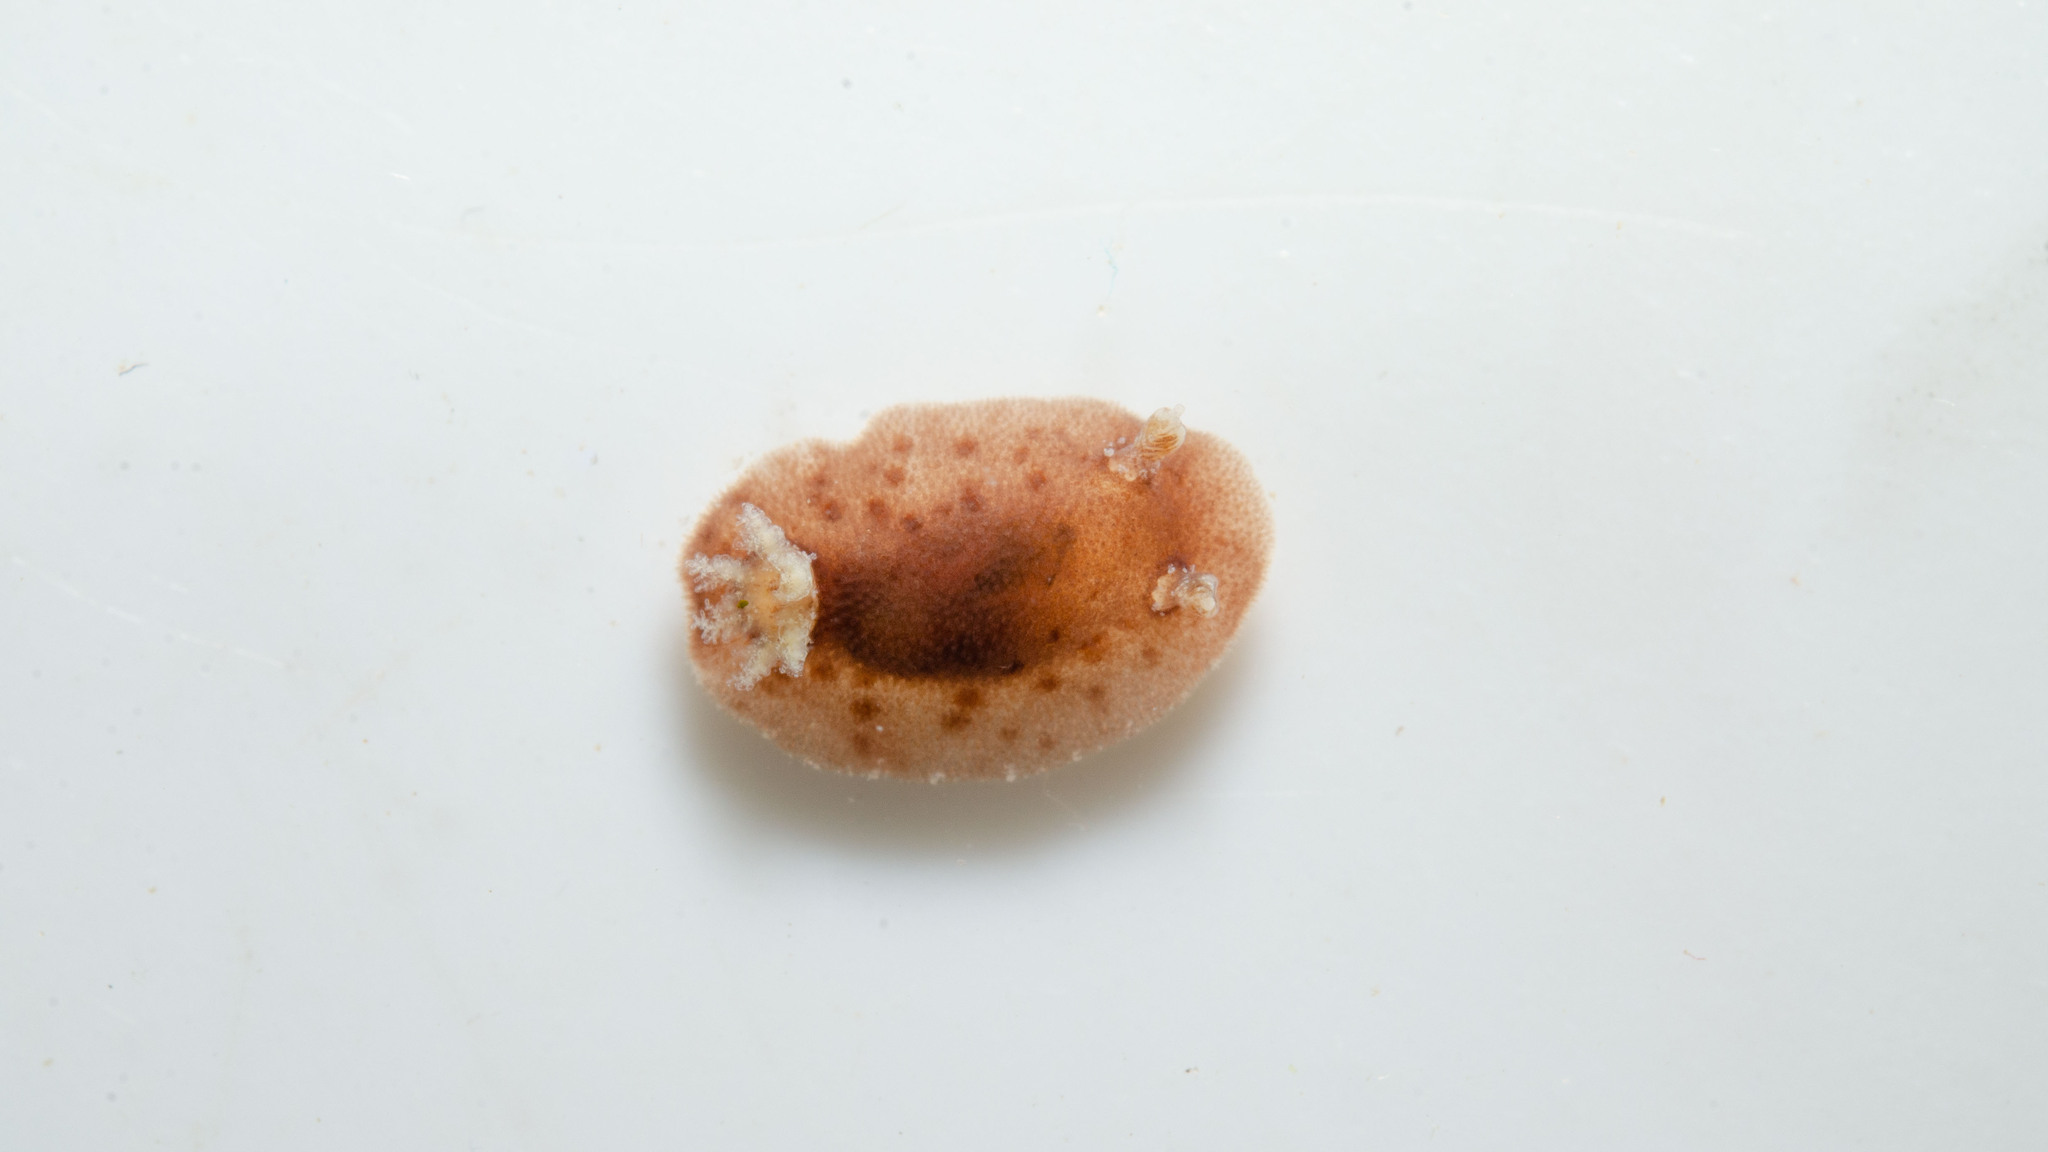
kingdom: Animalia
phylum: Mollusca
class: Gastropoda
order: Nudibranchia
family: Discodorididae
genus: Taringa
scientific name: Taringa telopia
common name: Orangeball taringa
